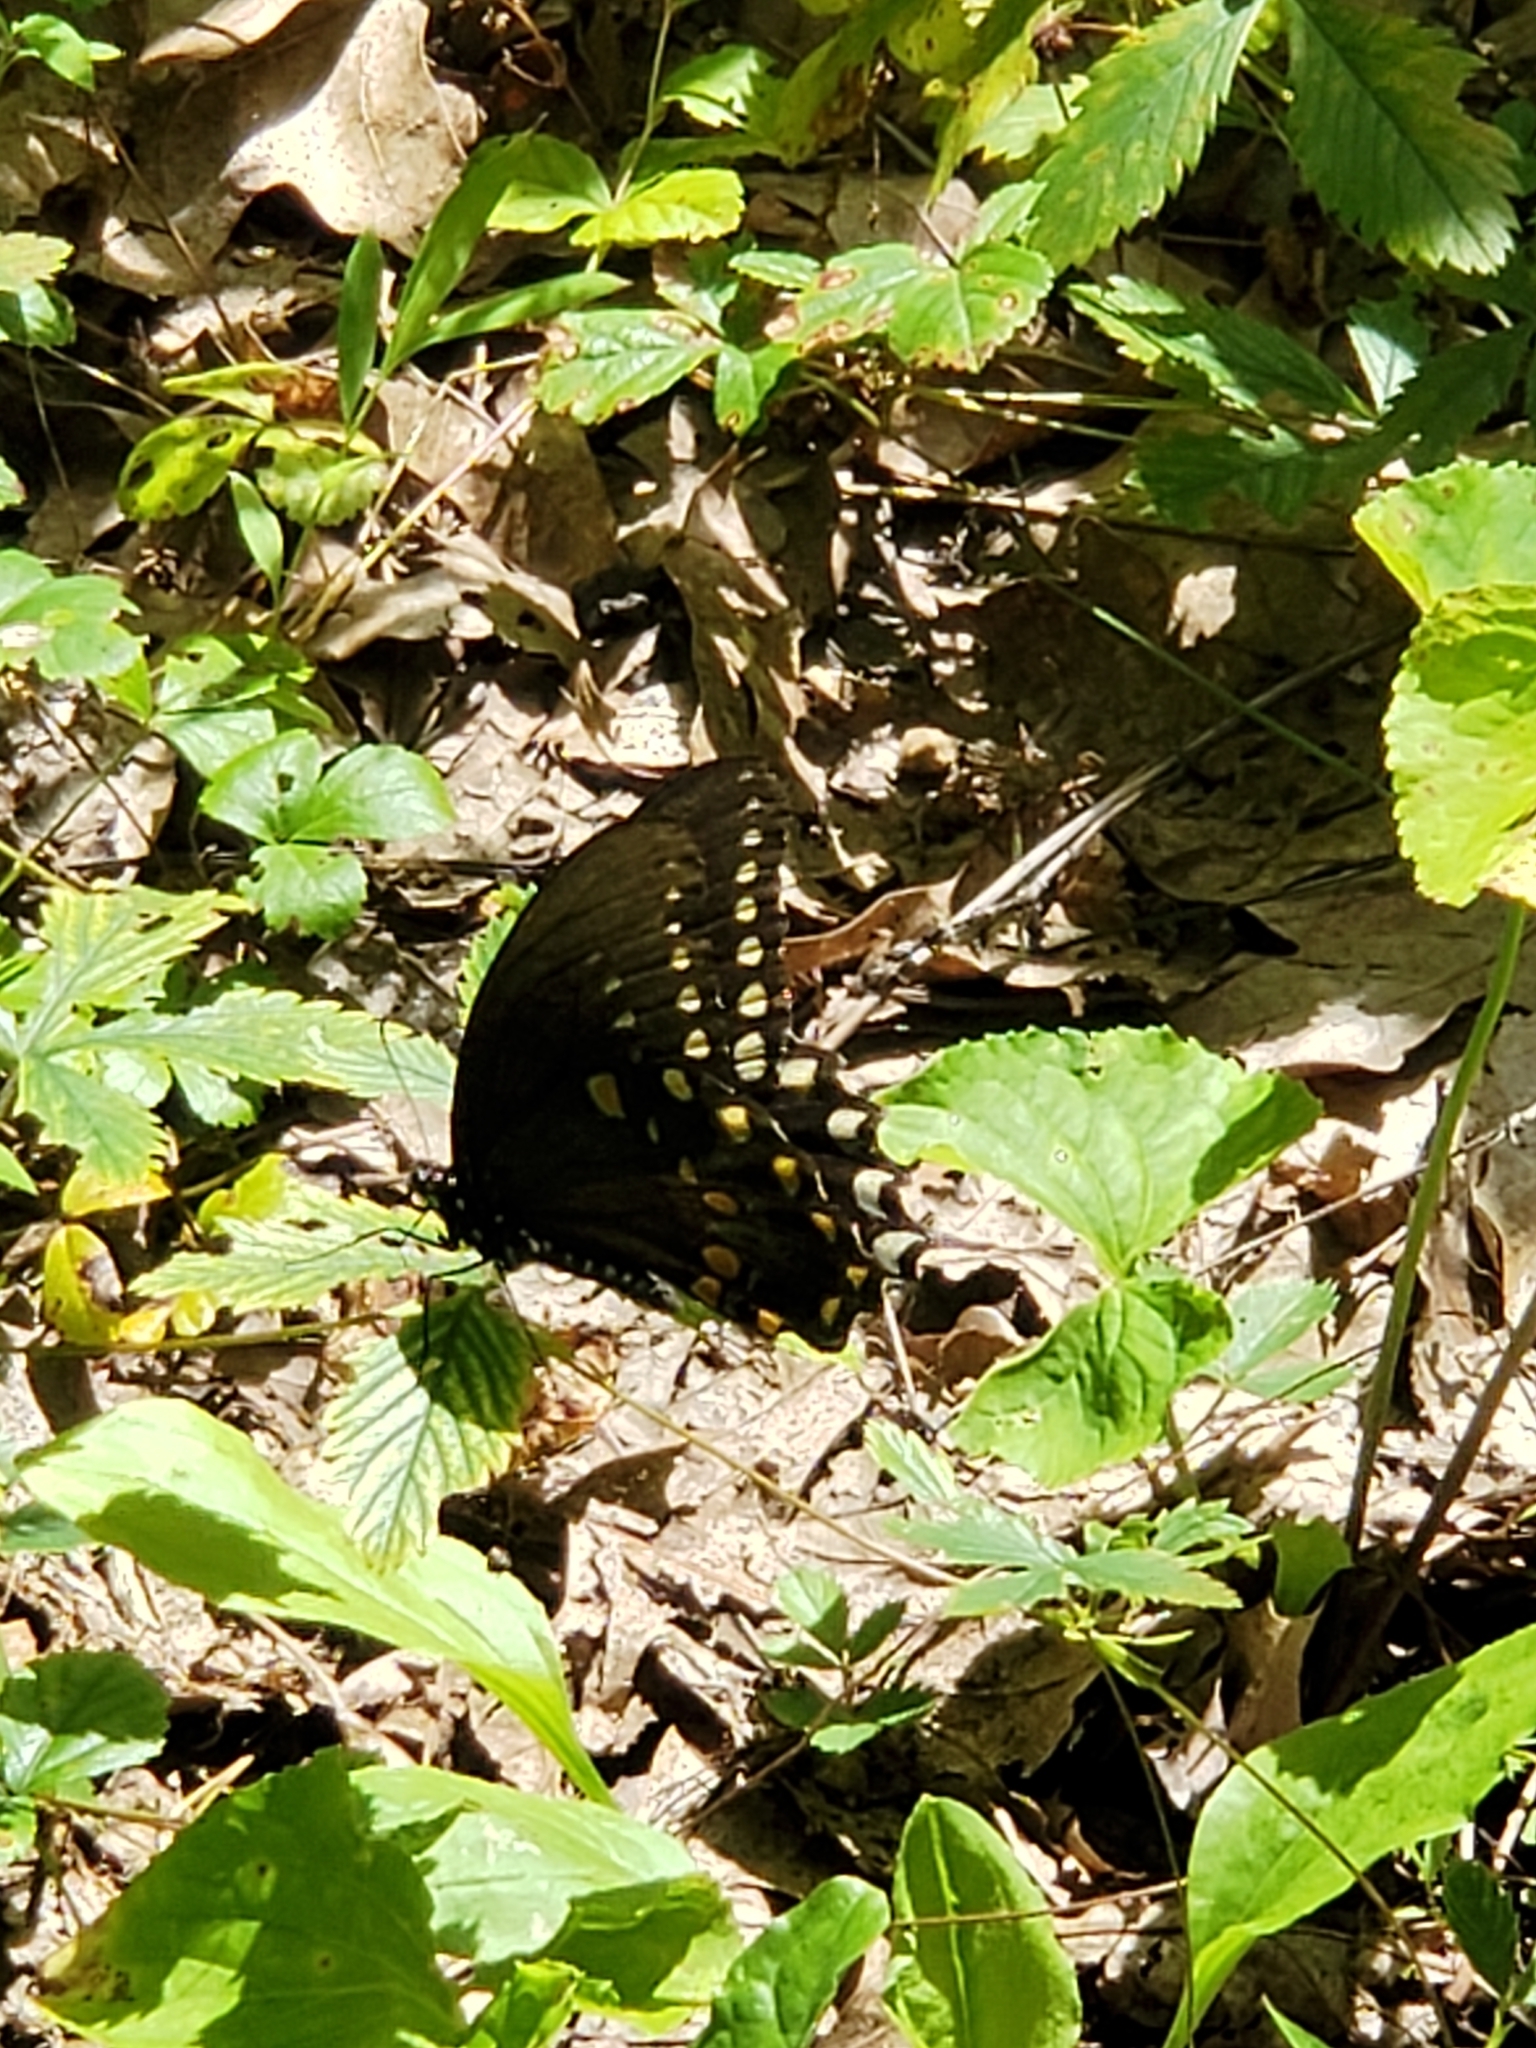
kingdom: Animalia
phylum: Arthropoda
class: Insecta
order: Lepidoptera
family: Papilionidae
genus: Papilio
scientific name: Papilio troilus
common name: Spicebush swallowtail
